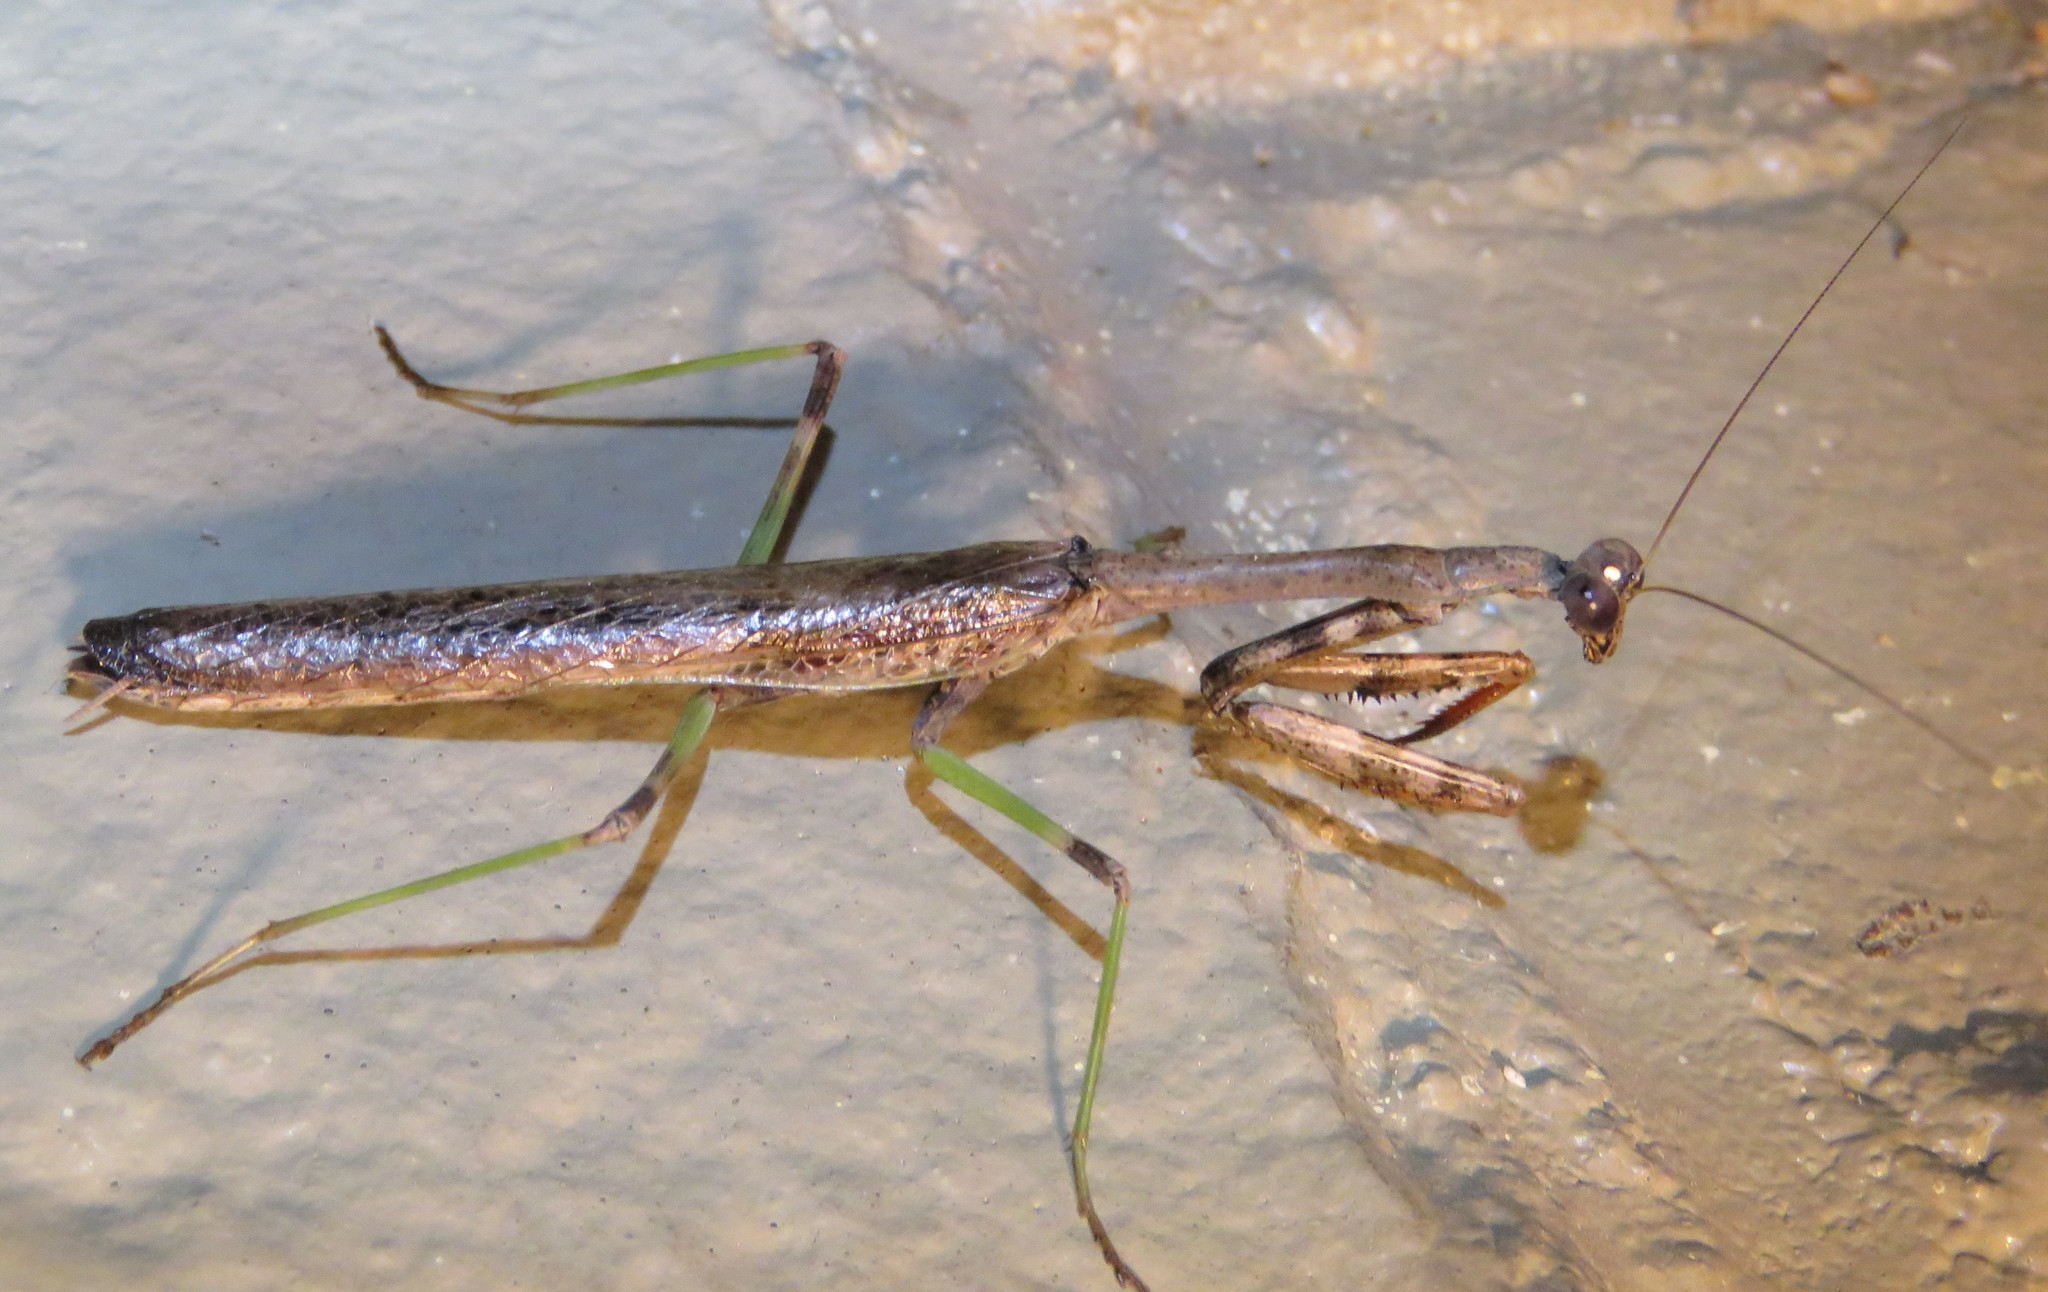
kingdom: Animalia
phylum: Arthropoda
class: Insecta
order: Mantodea
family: Mantidae
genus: Stagmomantis
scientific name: Stagmomantis carolina
